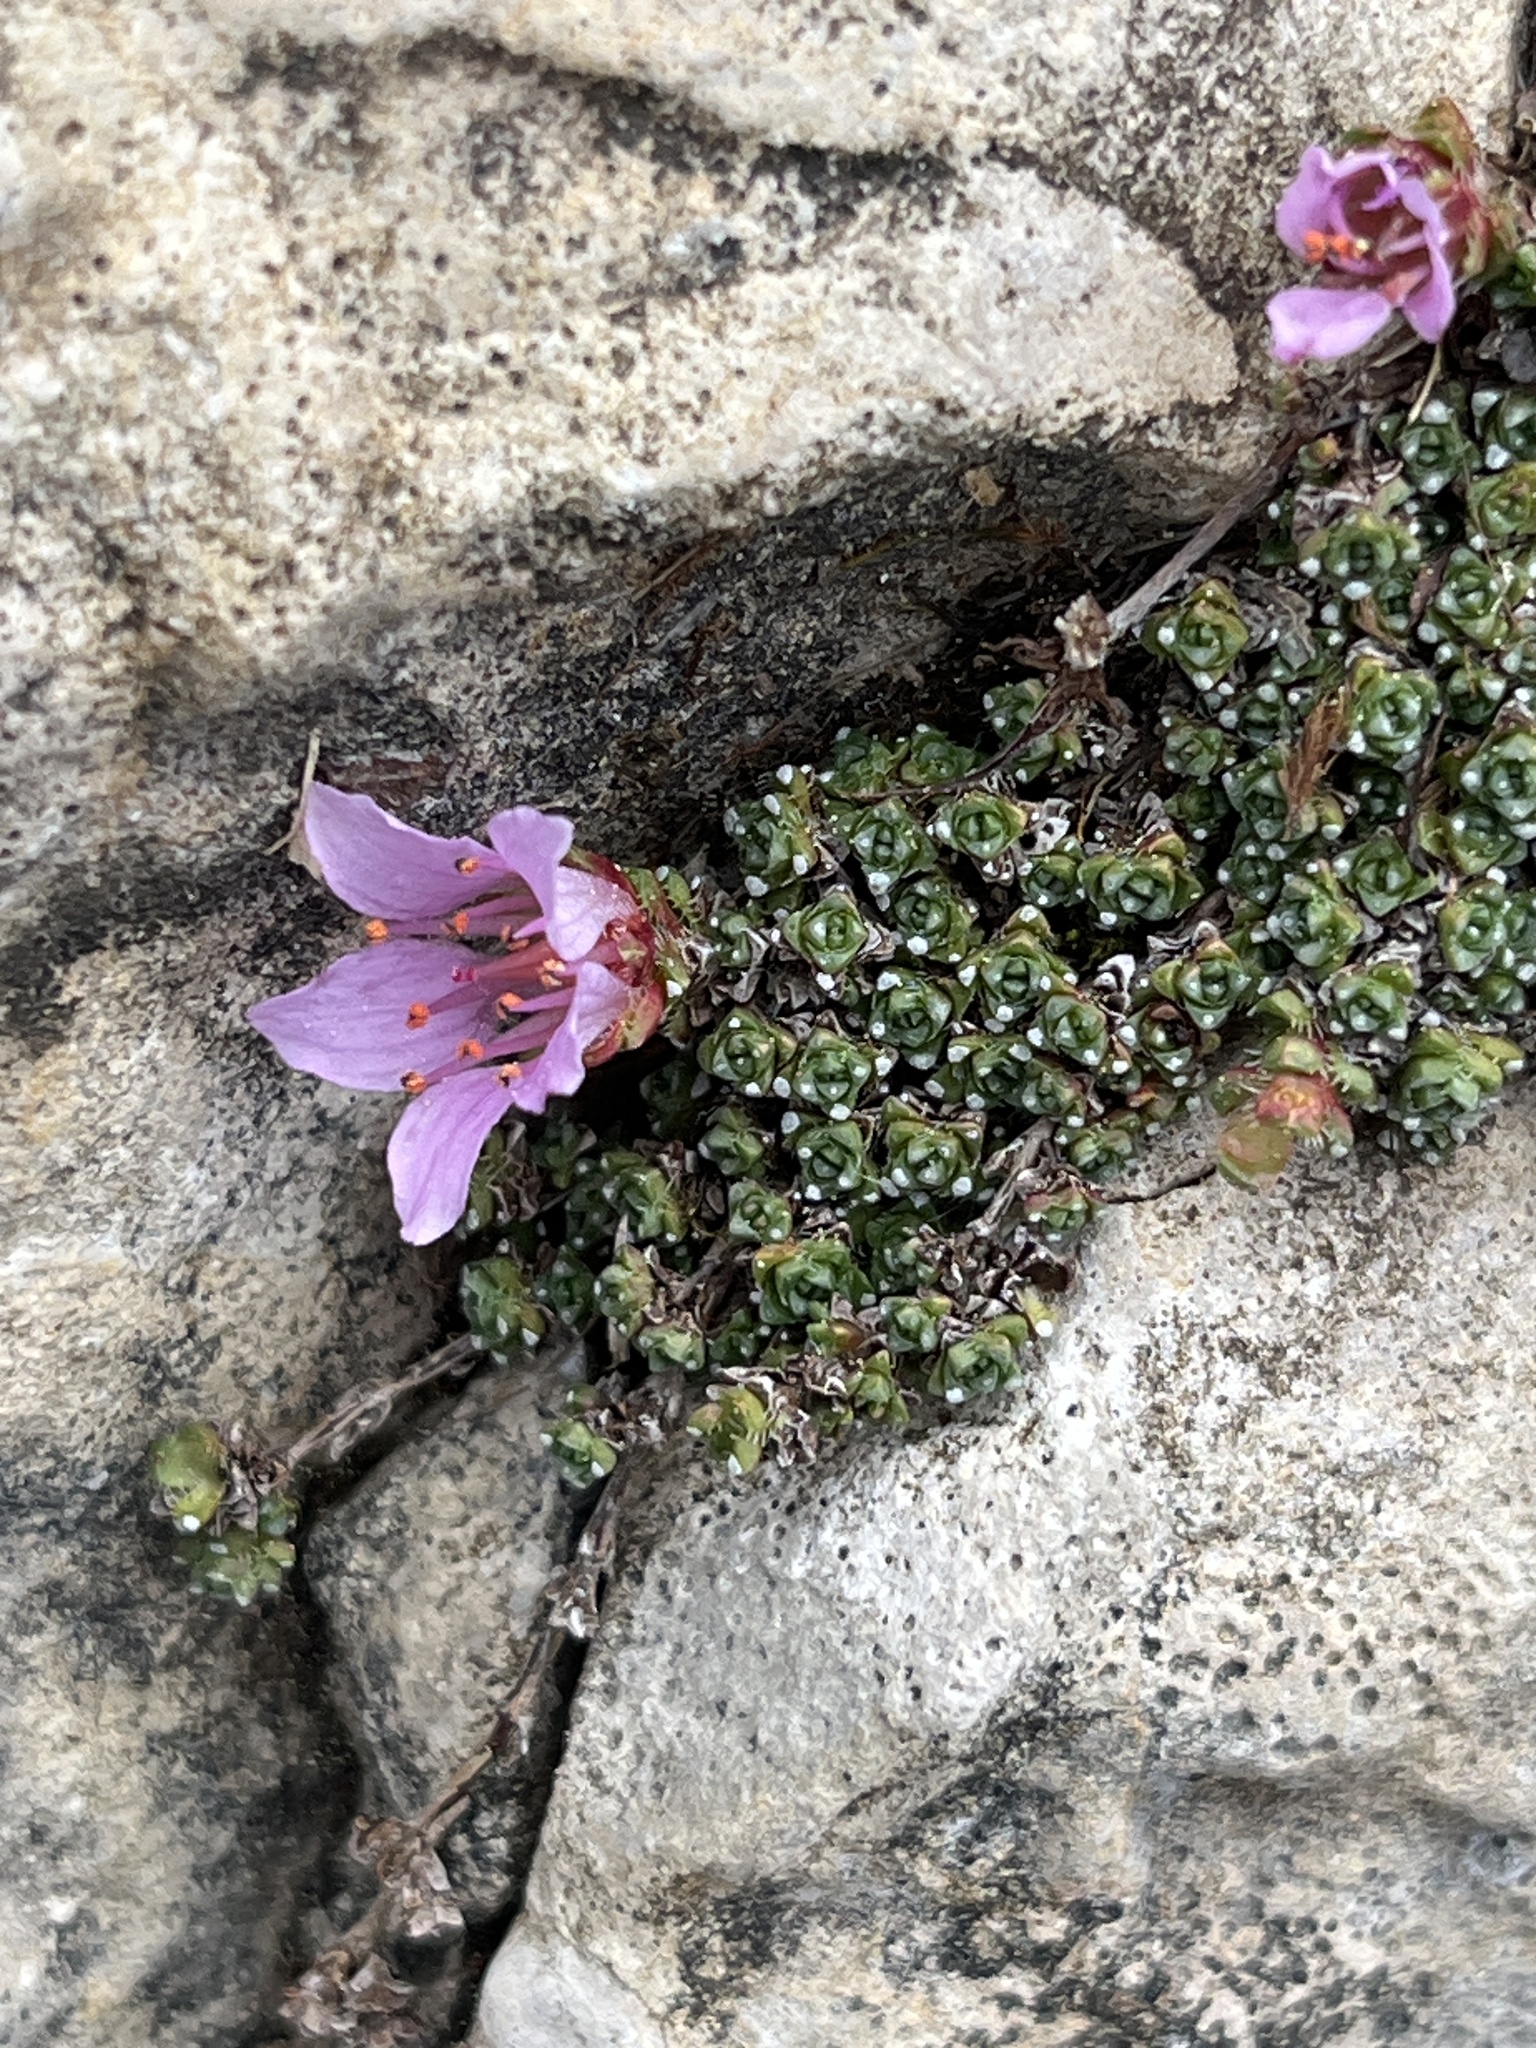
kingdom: Plantae
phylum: Tracheophyta
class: Magnoliopsida
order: Saxifragales
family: Saxifragaceae
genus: Saxifraga
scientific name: Saxifraga oppositifolia
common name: Purple saxifrage
